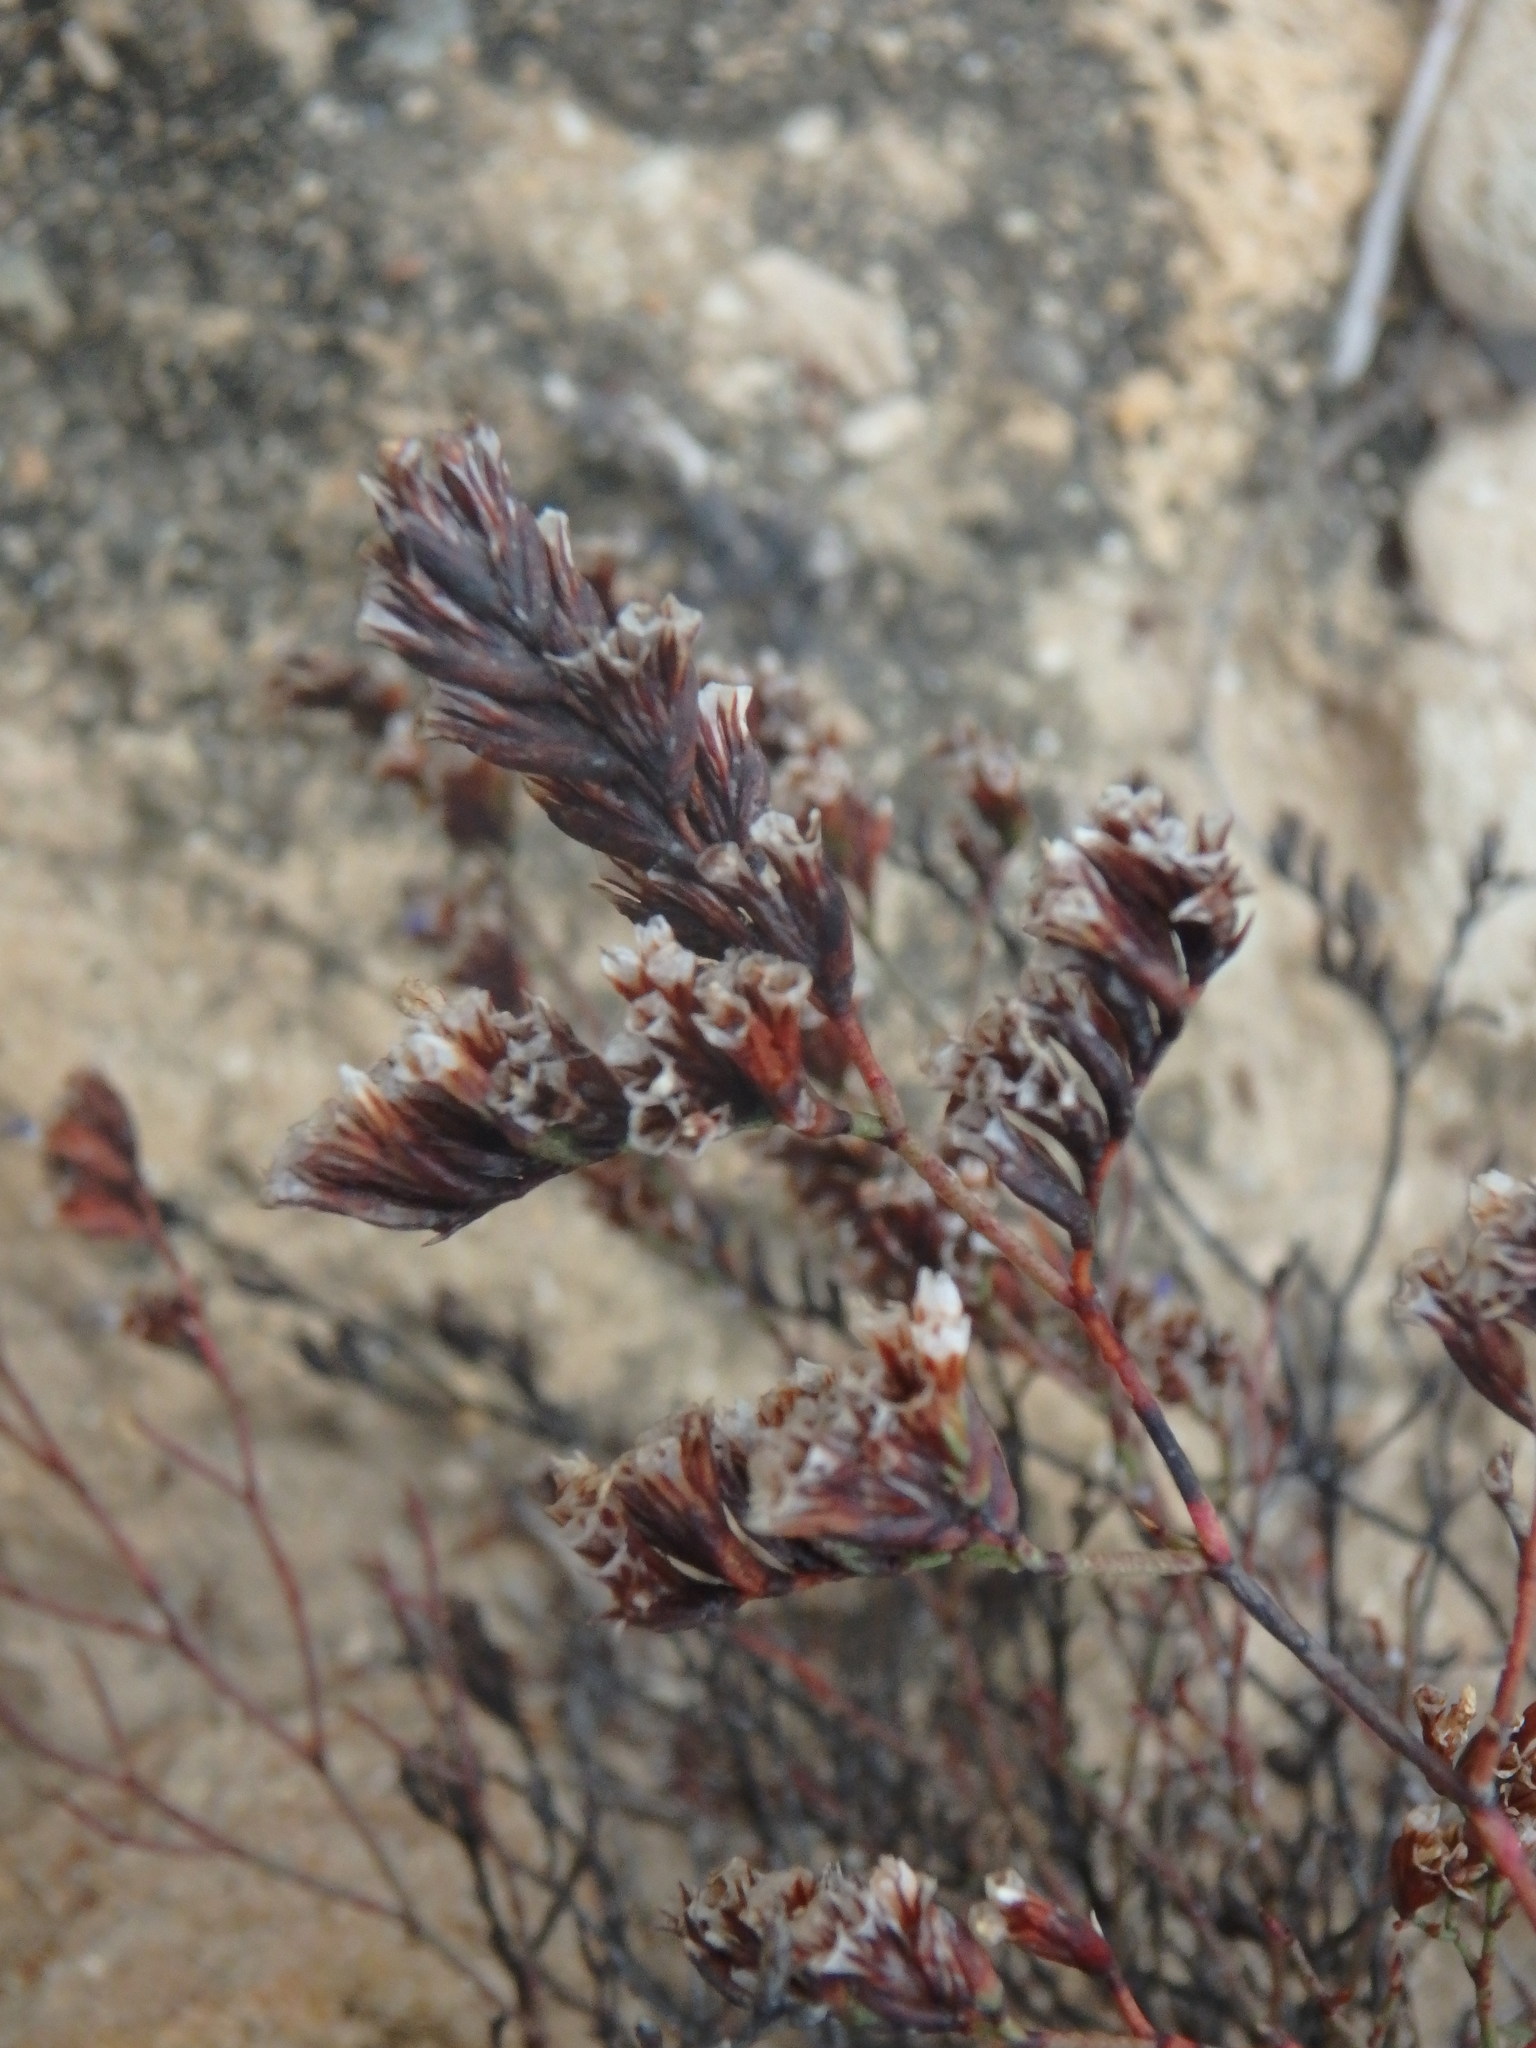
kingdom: Plantae
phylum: Tracheophyta
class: Magnoliopsida
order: Caryophyllales
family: Plumbaginaceae
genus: Limonium
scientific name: Limonium virgatum
